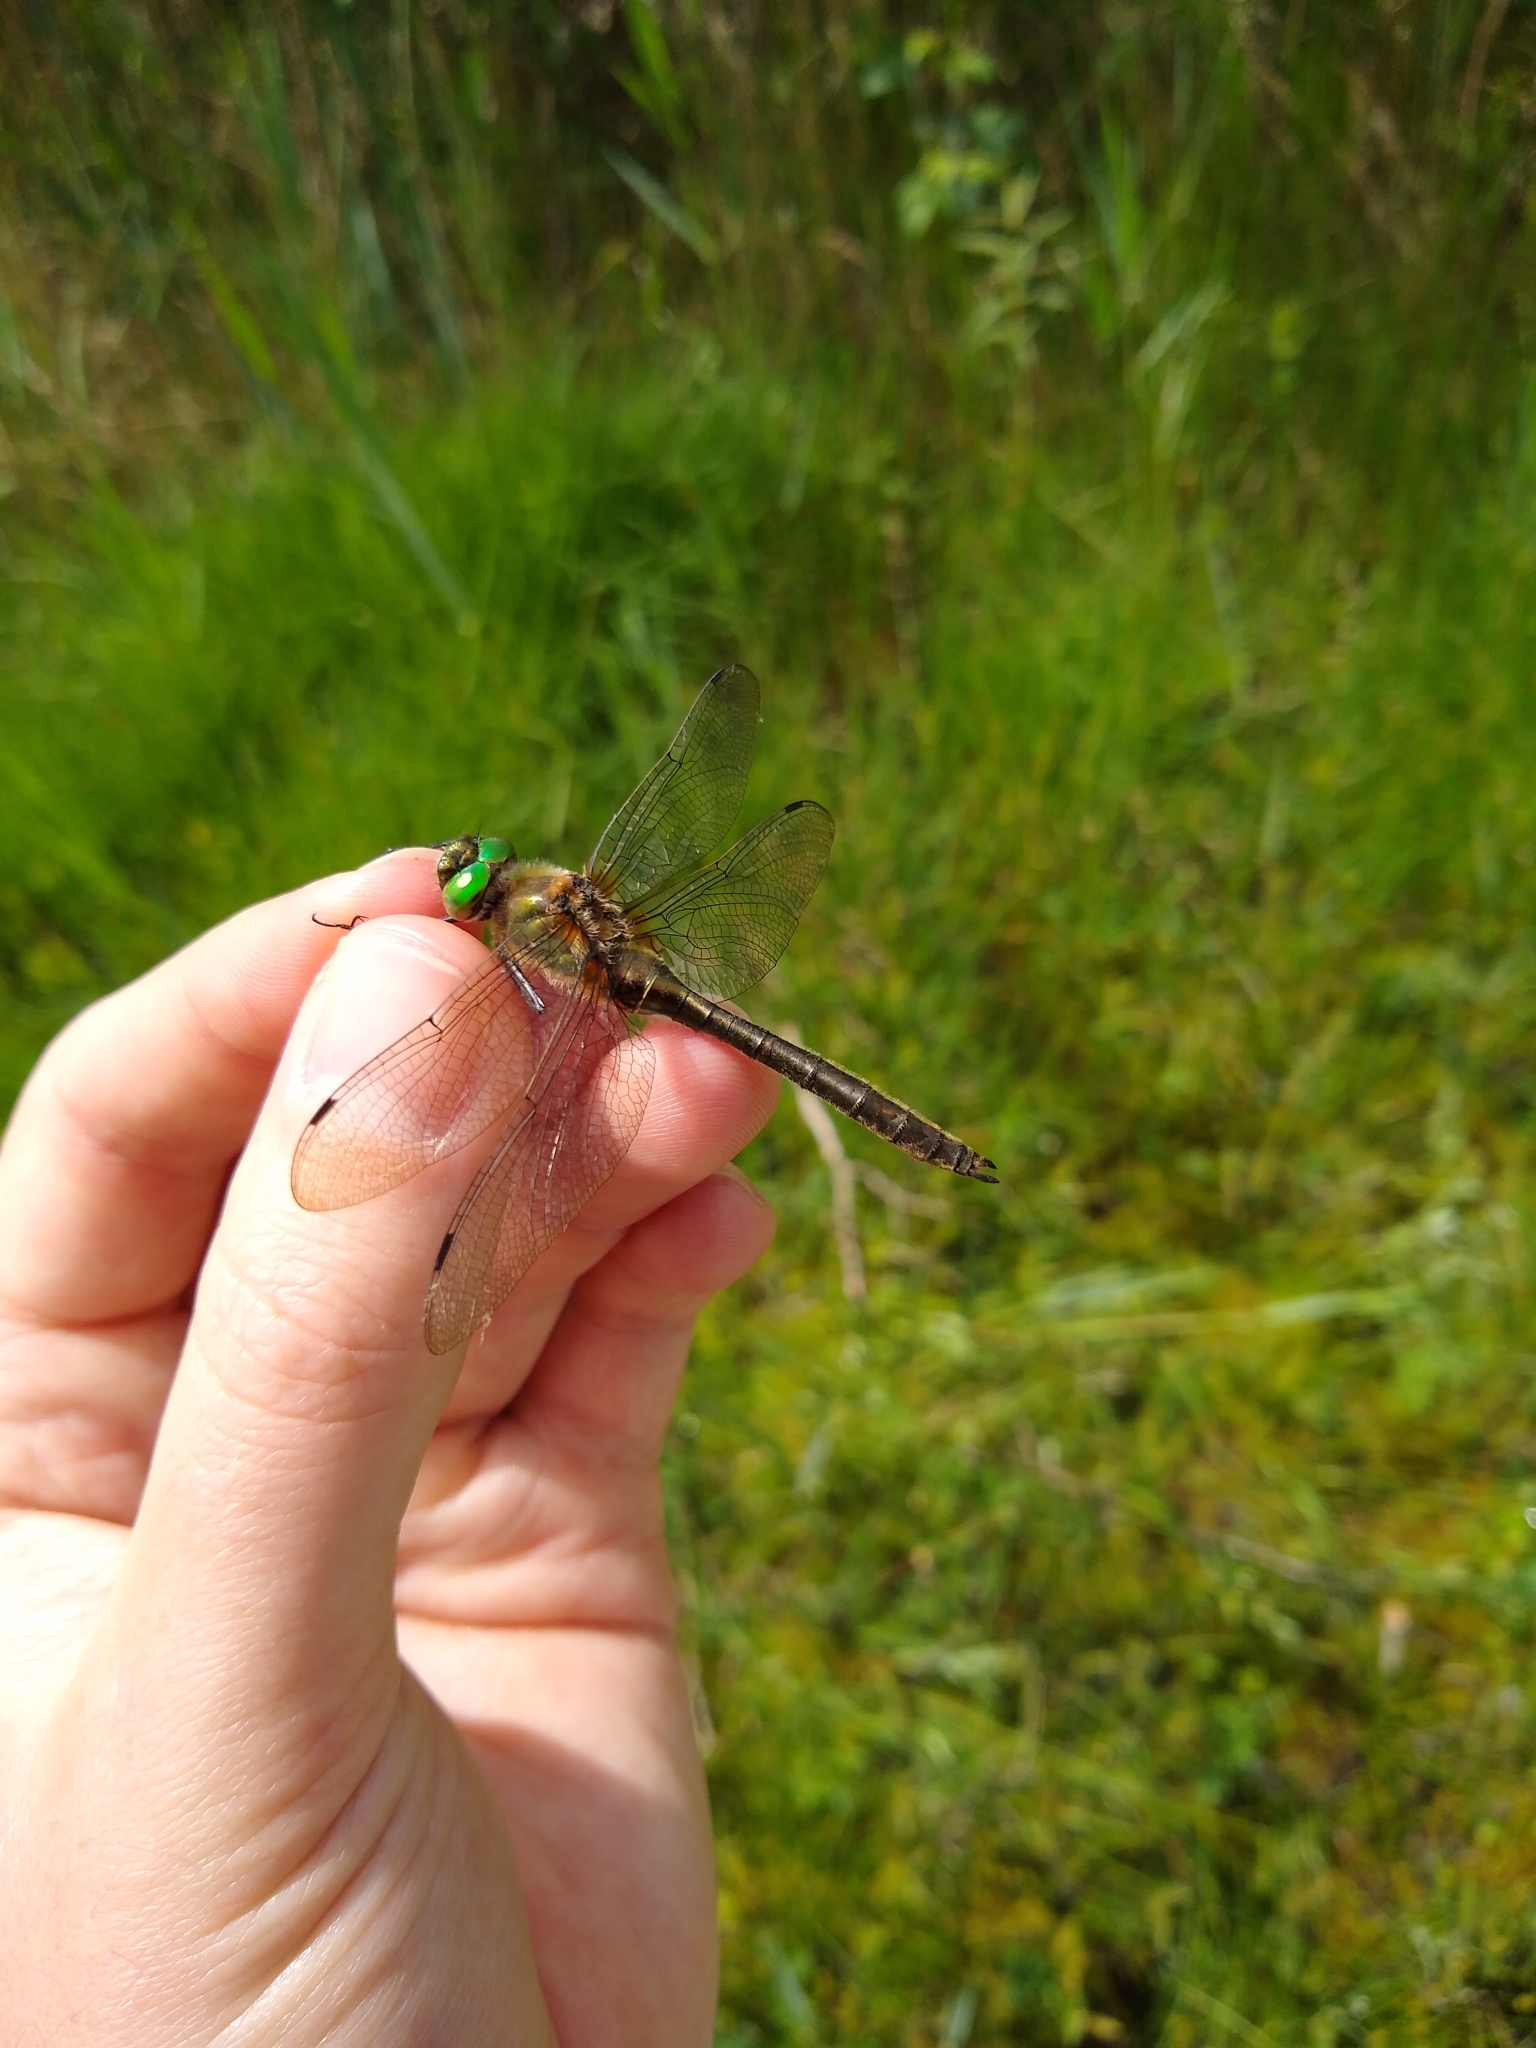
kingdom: Animalia
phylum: Arthropoda
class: Insecta
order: Odonata
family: Corduliidae
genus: Cordulia
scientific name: Cordulia aenea
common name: Downy emerald
